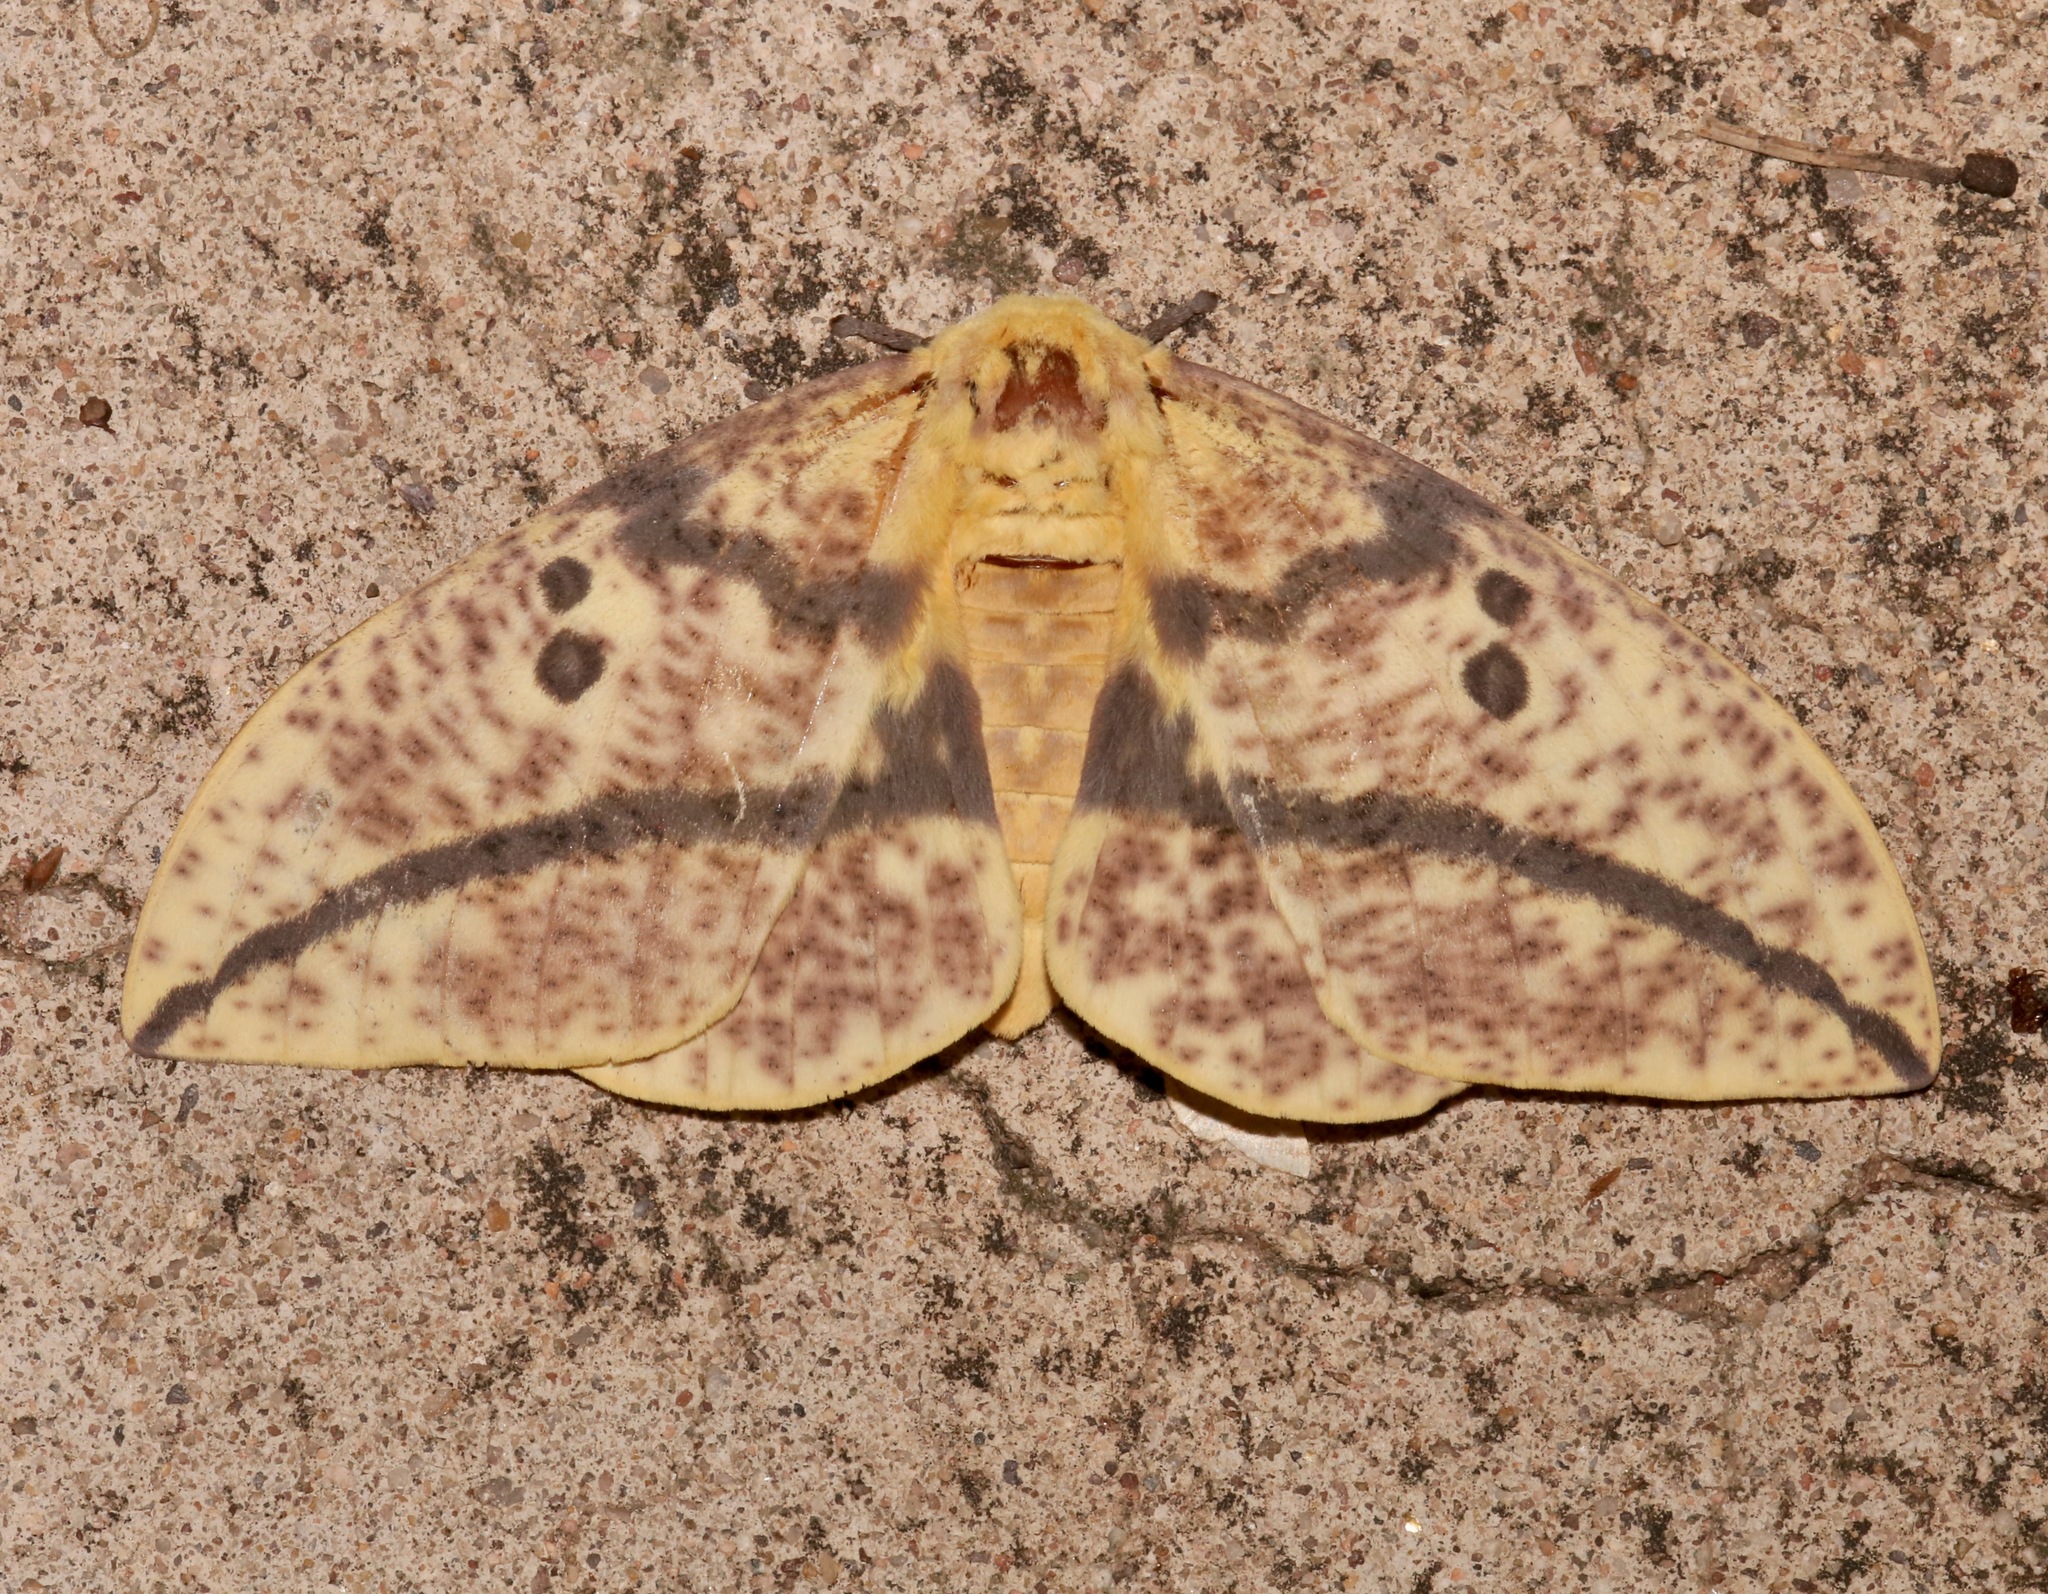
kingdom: Animalia
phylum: Arthropoda
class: Insecta
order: Lepidoptera
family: Saturniidae
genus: Eacles
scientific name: Eacles oslari
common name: Oslar's imperial moth
